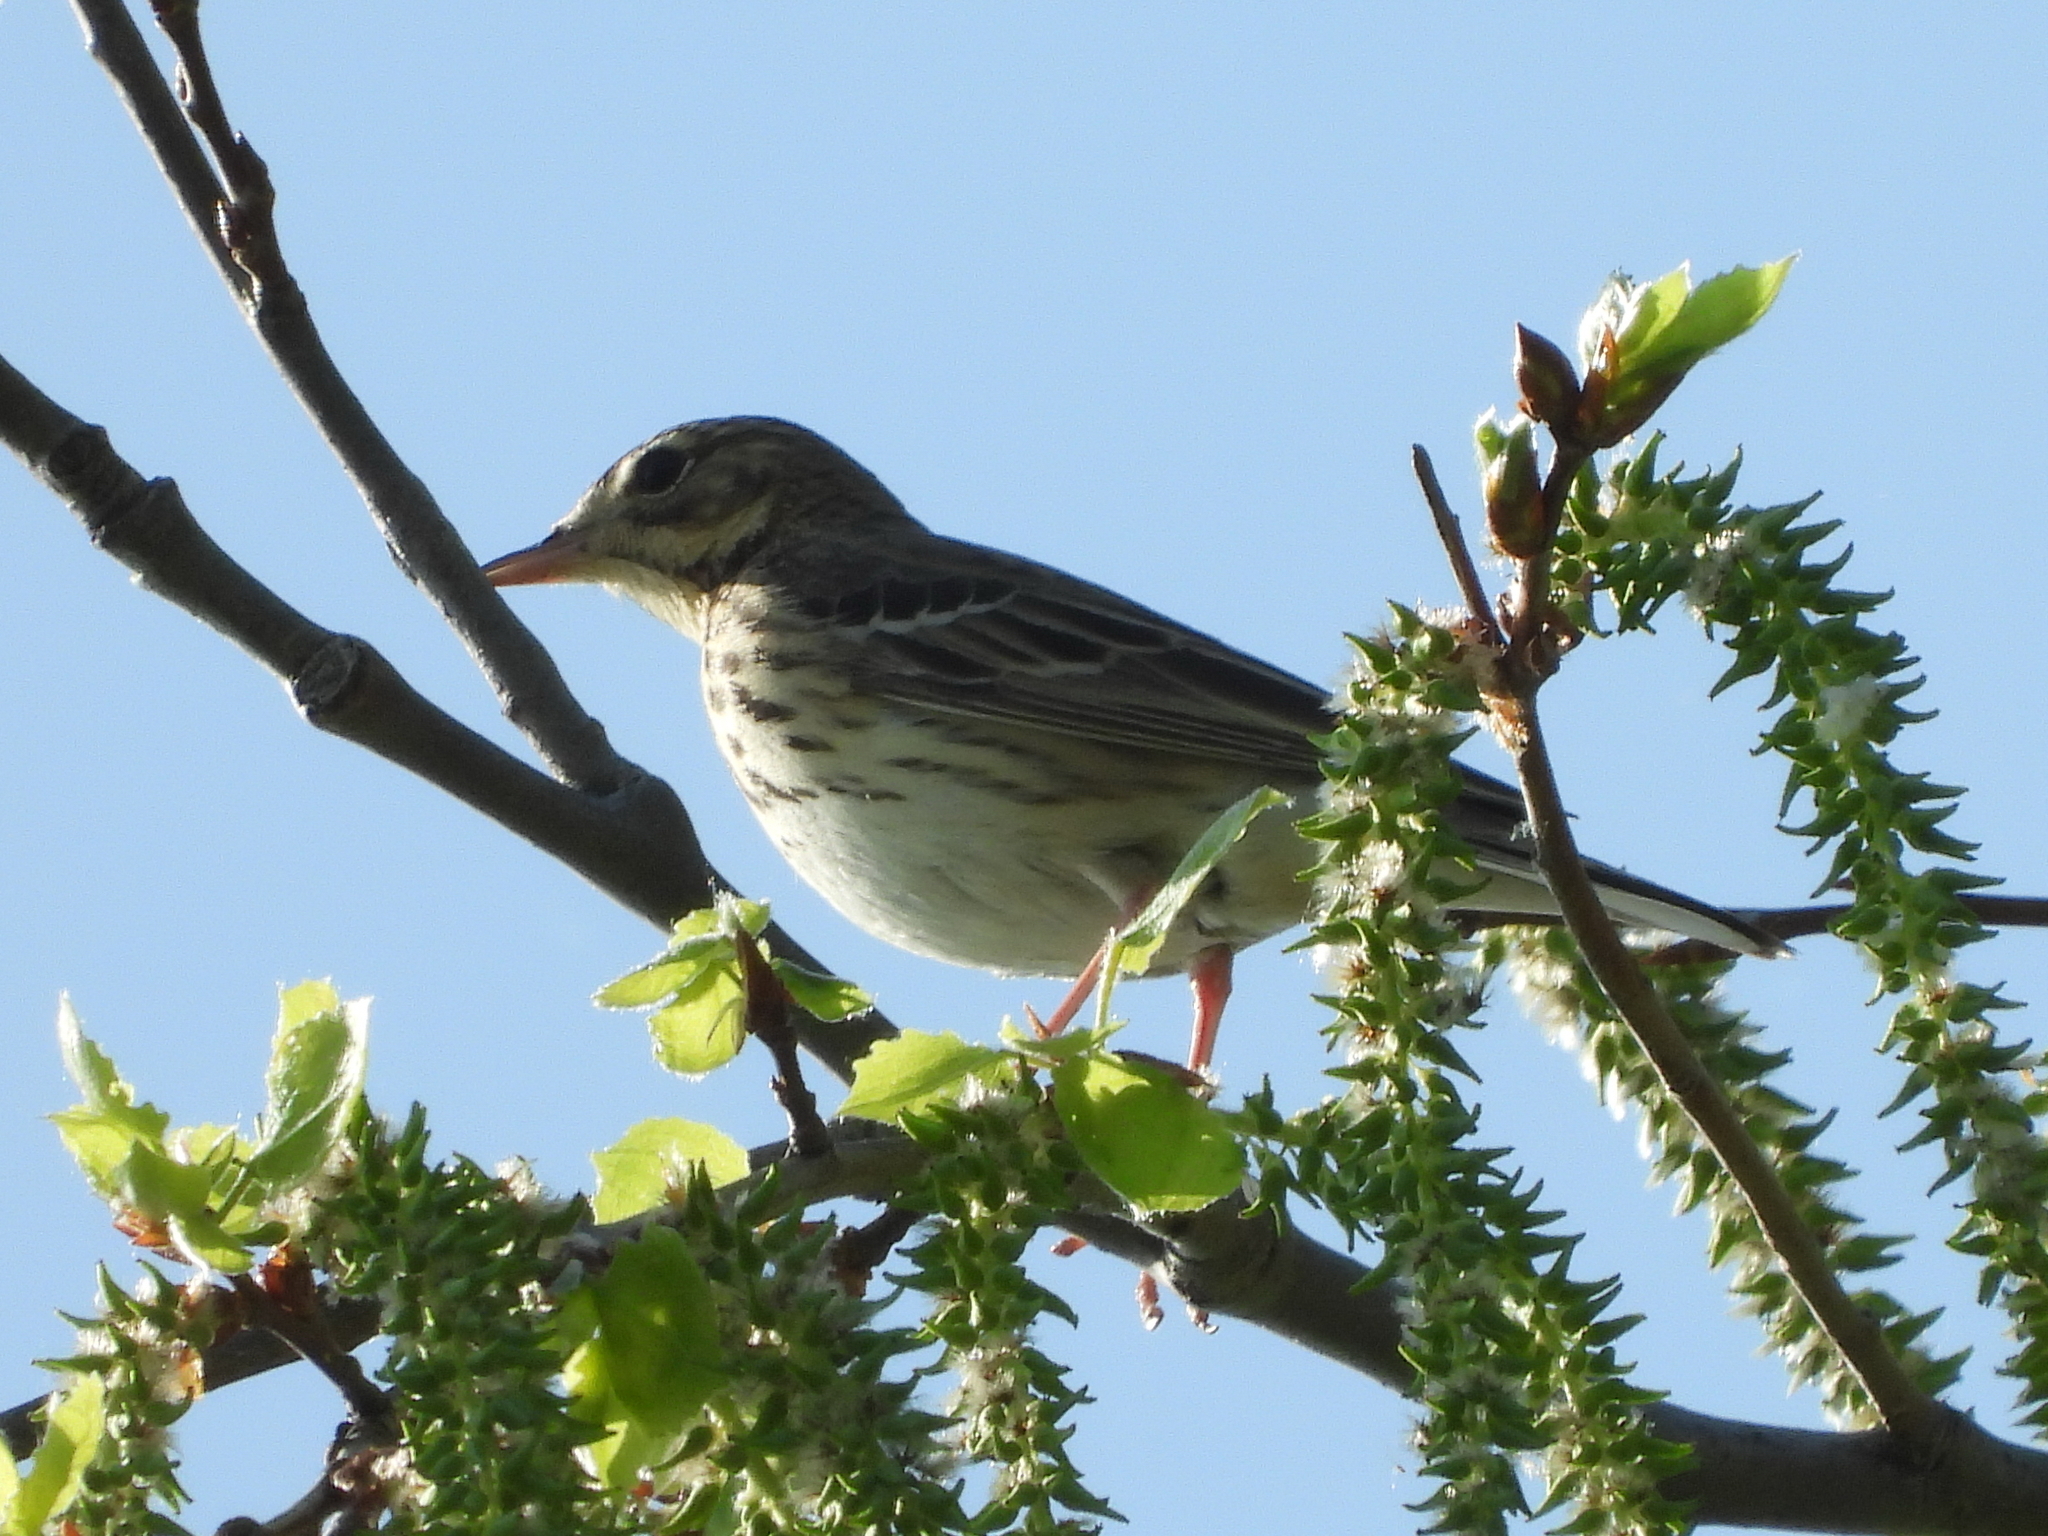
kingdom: Animalia
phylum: Chordata
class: Aves
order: Passeriformes
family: Motacillidae
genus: Anthus
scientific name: Anthus trivialis
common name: Tree pipit
